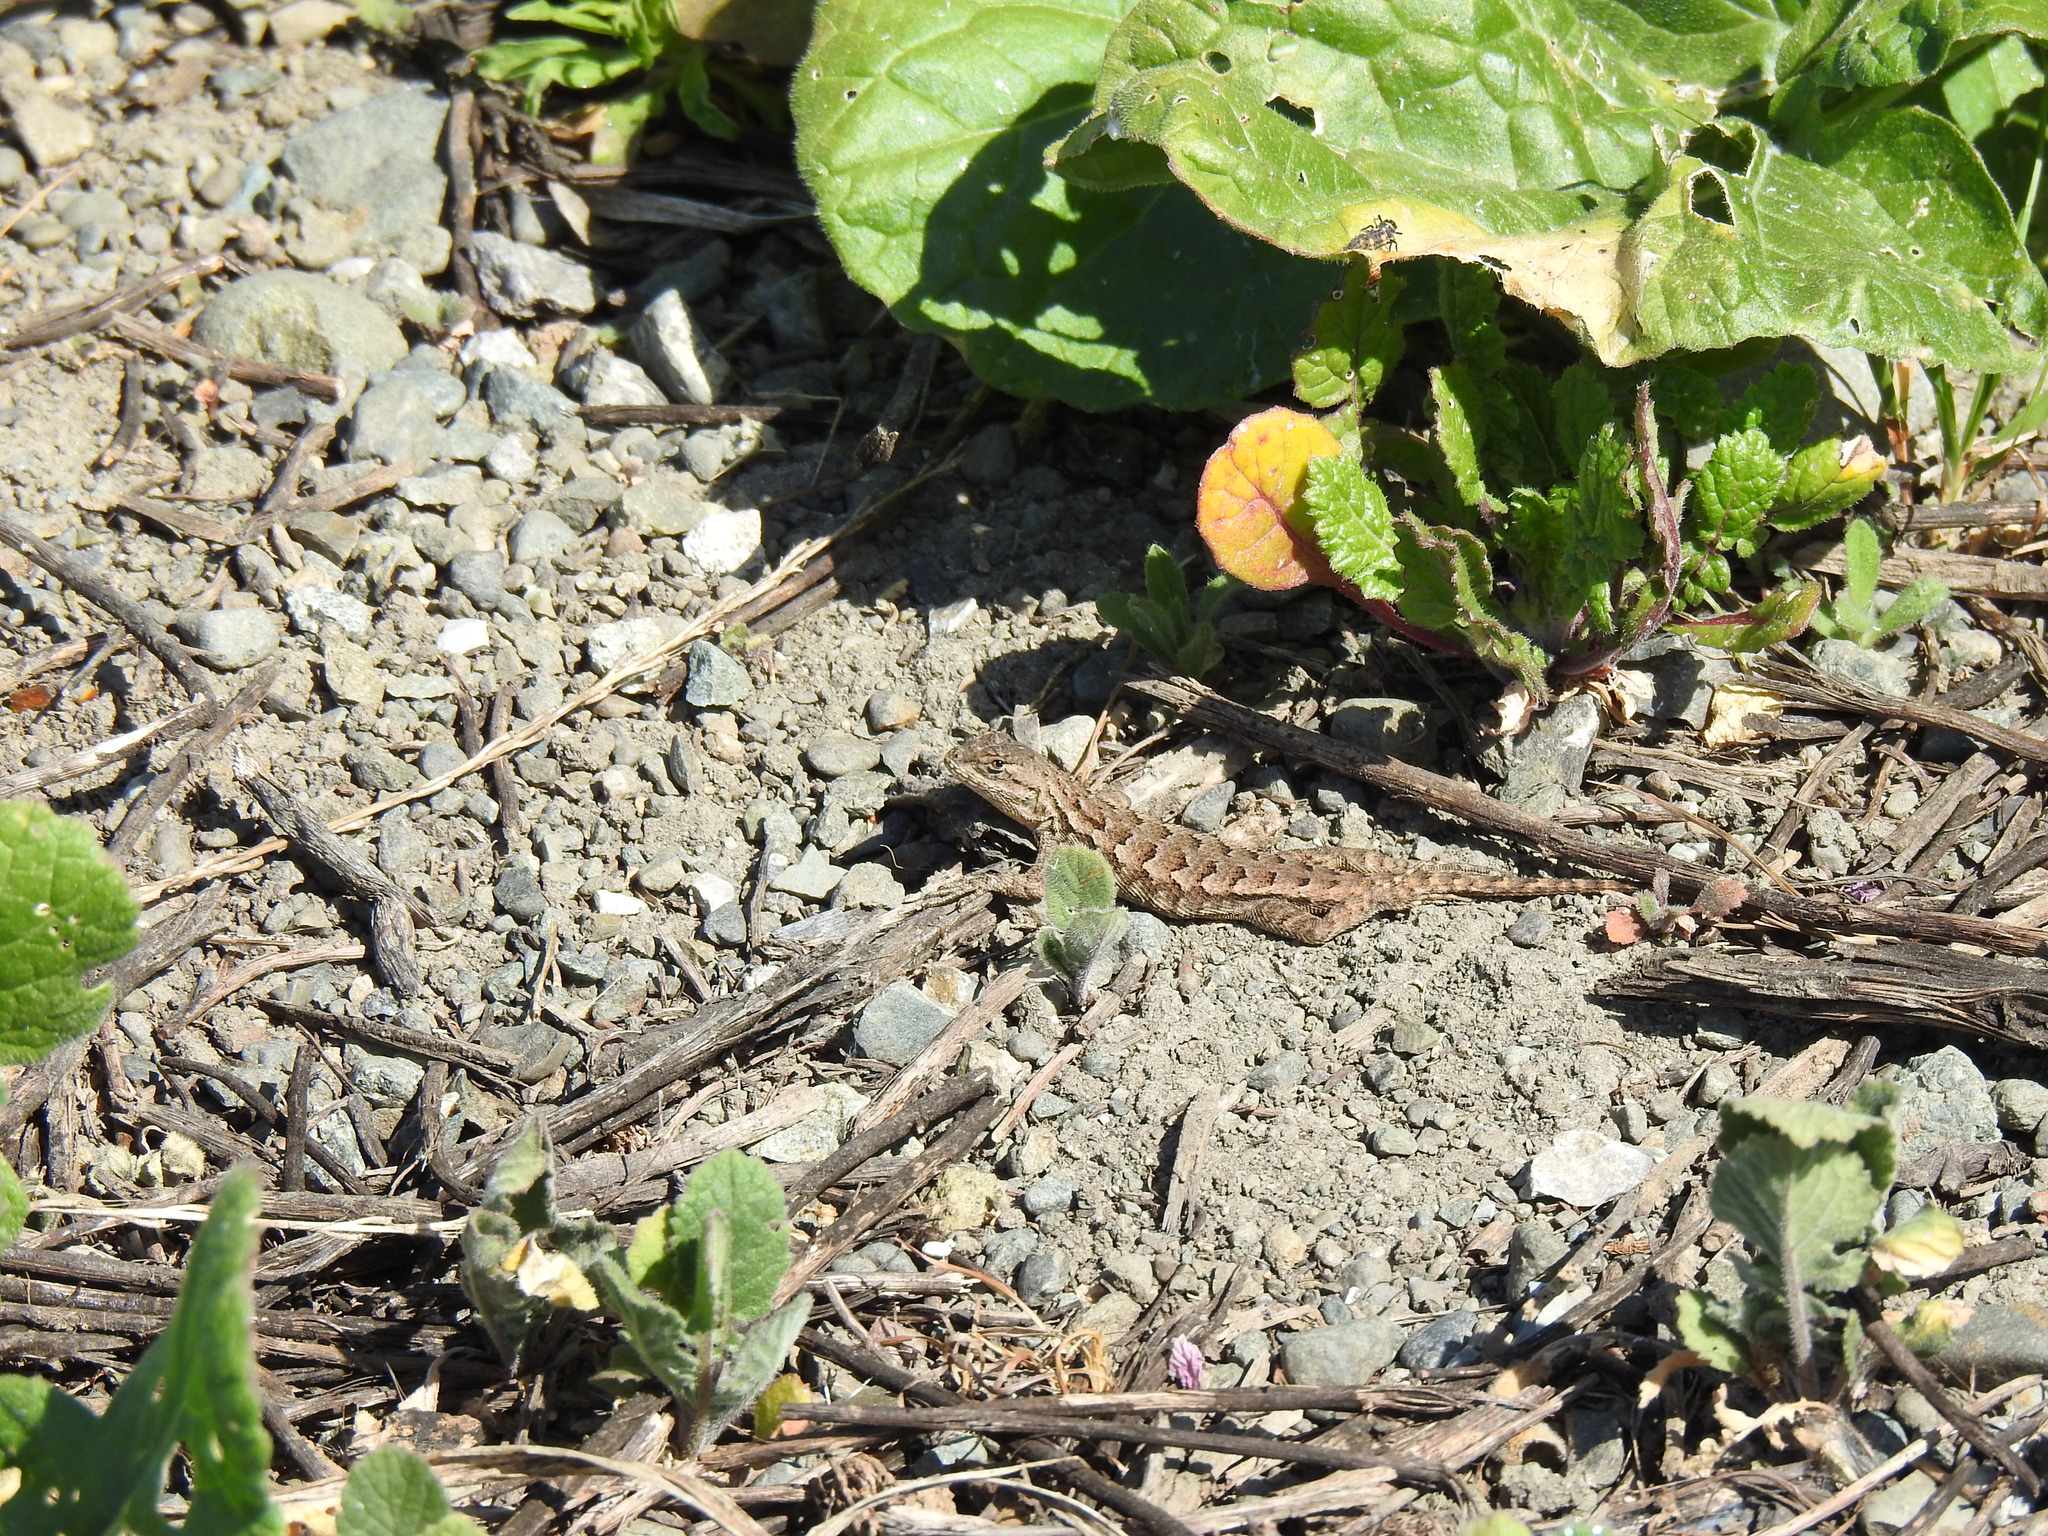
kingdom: Animalia
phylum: Chordata
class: Squamata
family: Phrynosomatidae
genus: Sceloporus
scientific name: Sceloporus occidentalis
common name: Western fence lizard
